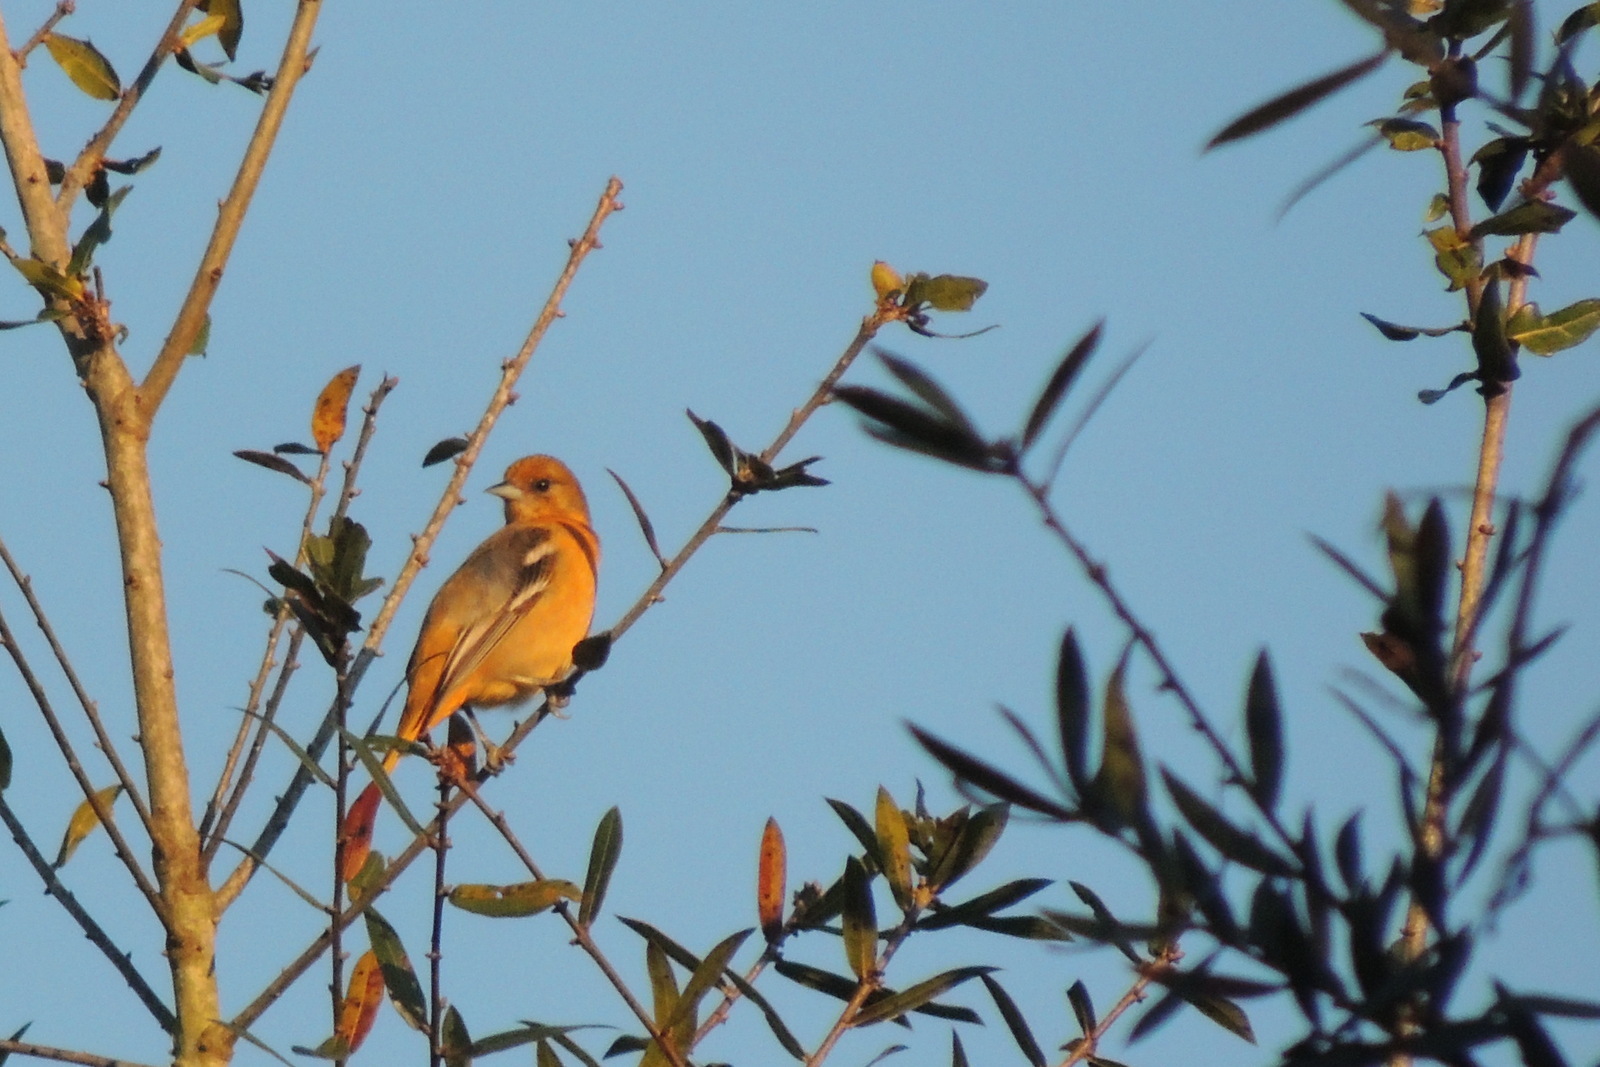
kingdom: Animalia
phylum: Chordata
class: Aves
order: Passeriformes
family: Icteridae
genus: Icterus
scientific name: Icterus galbula
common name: Baltimore oriole
